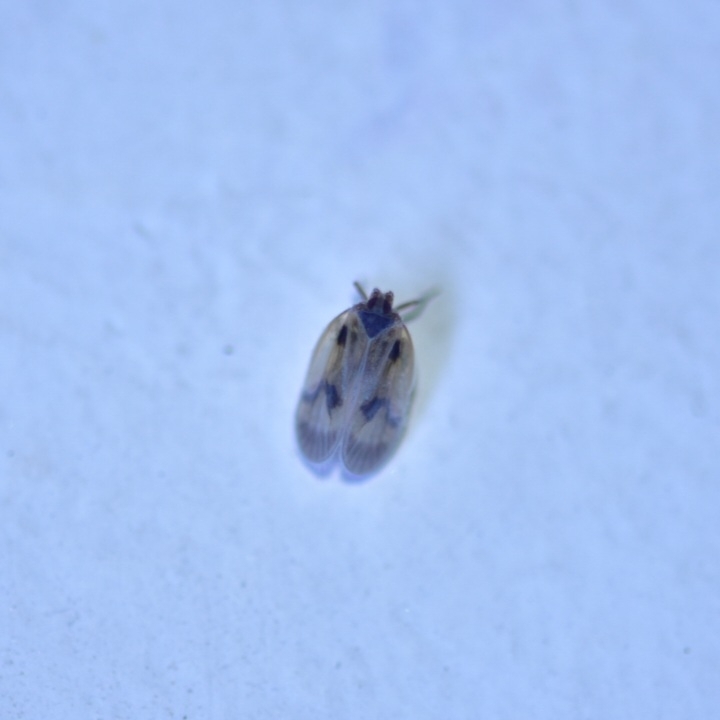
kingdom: Animalia
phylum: Arthropoda
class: Insecta
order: Hemiptera
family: Kinnaridae
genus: Kinnara
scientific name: Kinnara maculata
